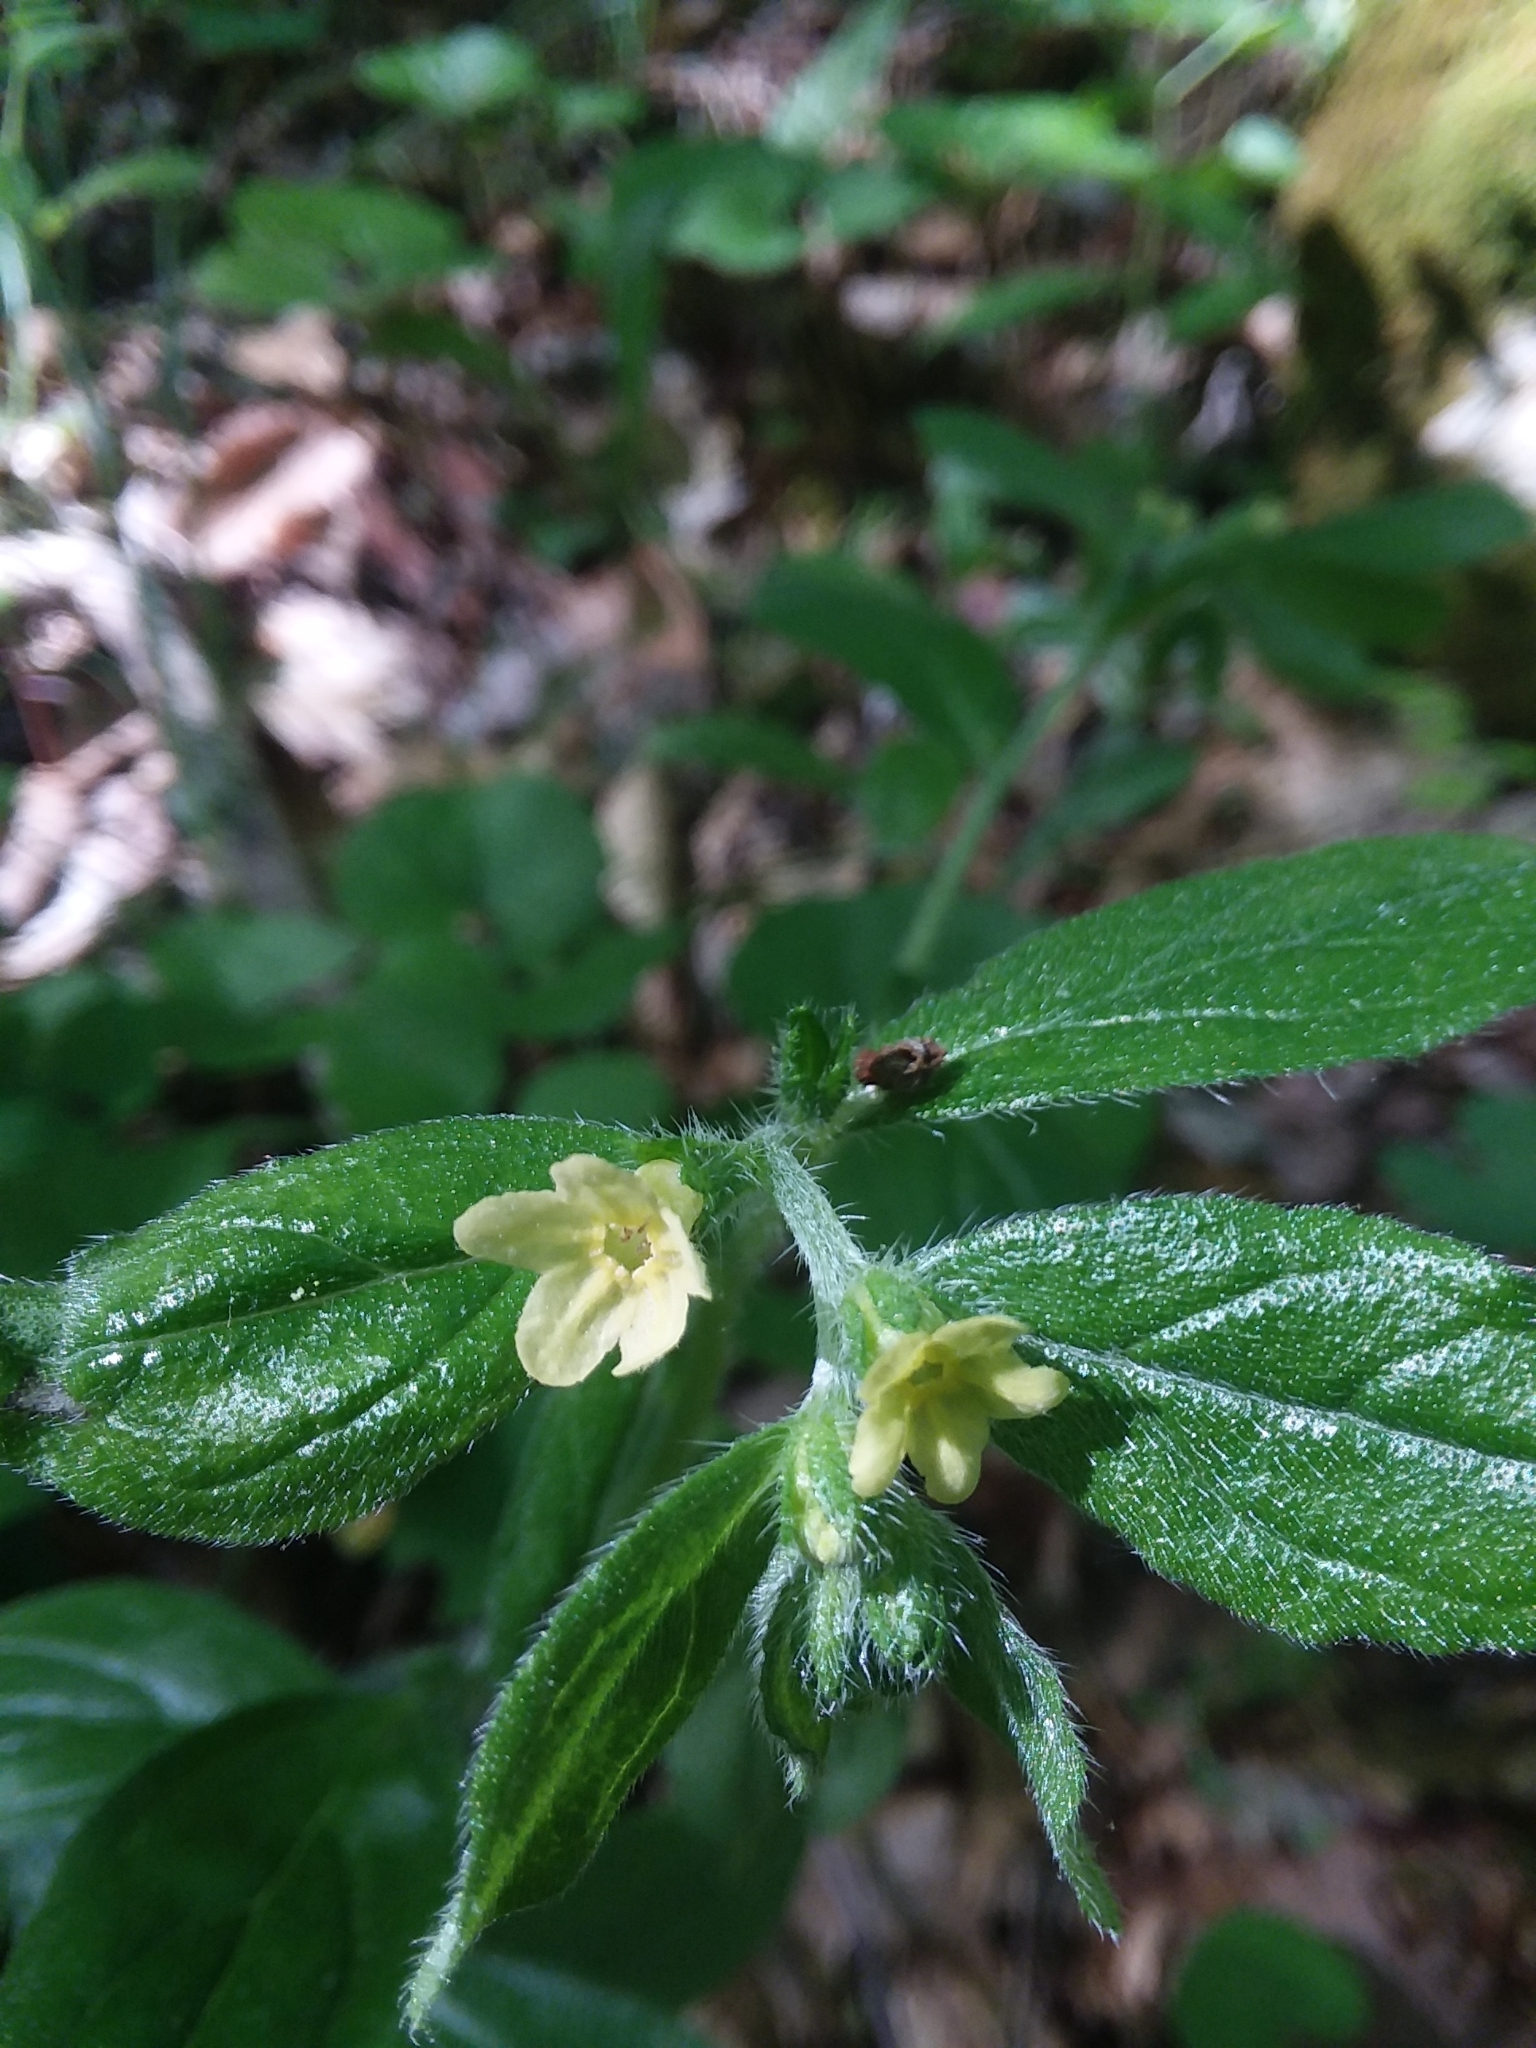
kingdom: Plantae
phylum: Tracheophyta
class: Magnoliopsida
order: Boraginales
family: Boraginaceae
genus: Lithospermum
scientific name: Lithospermum tuberosum
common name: Southern stoneseed
